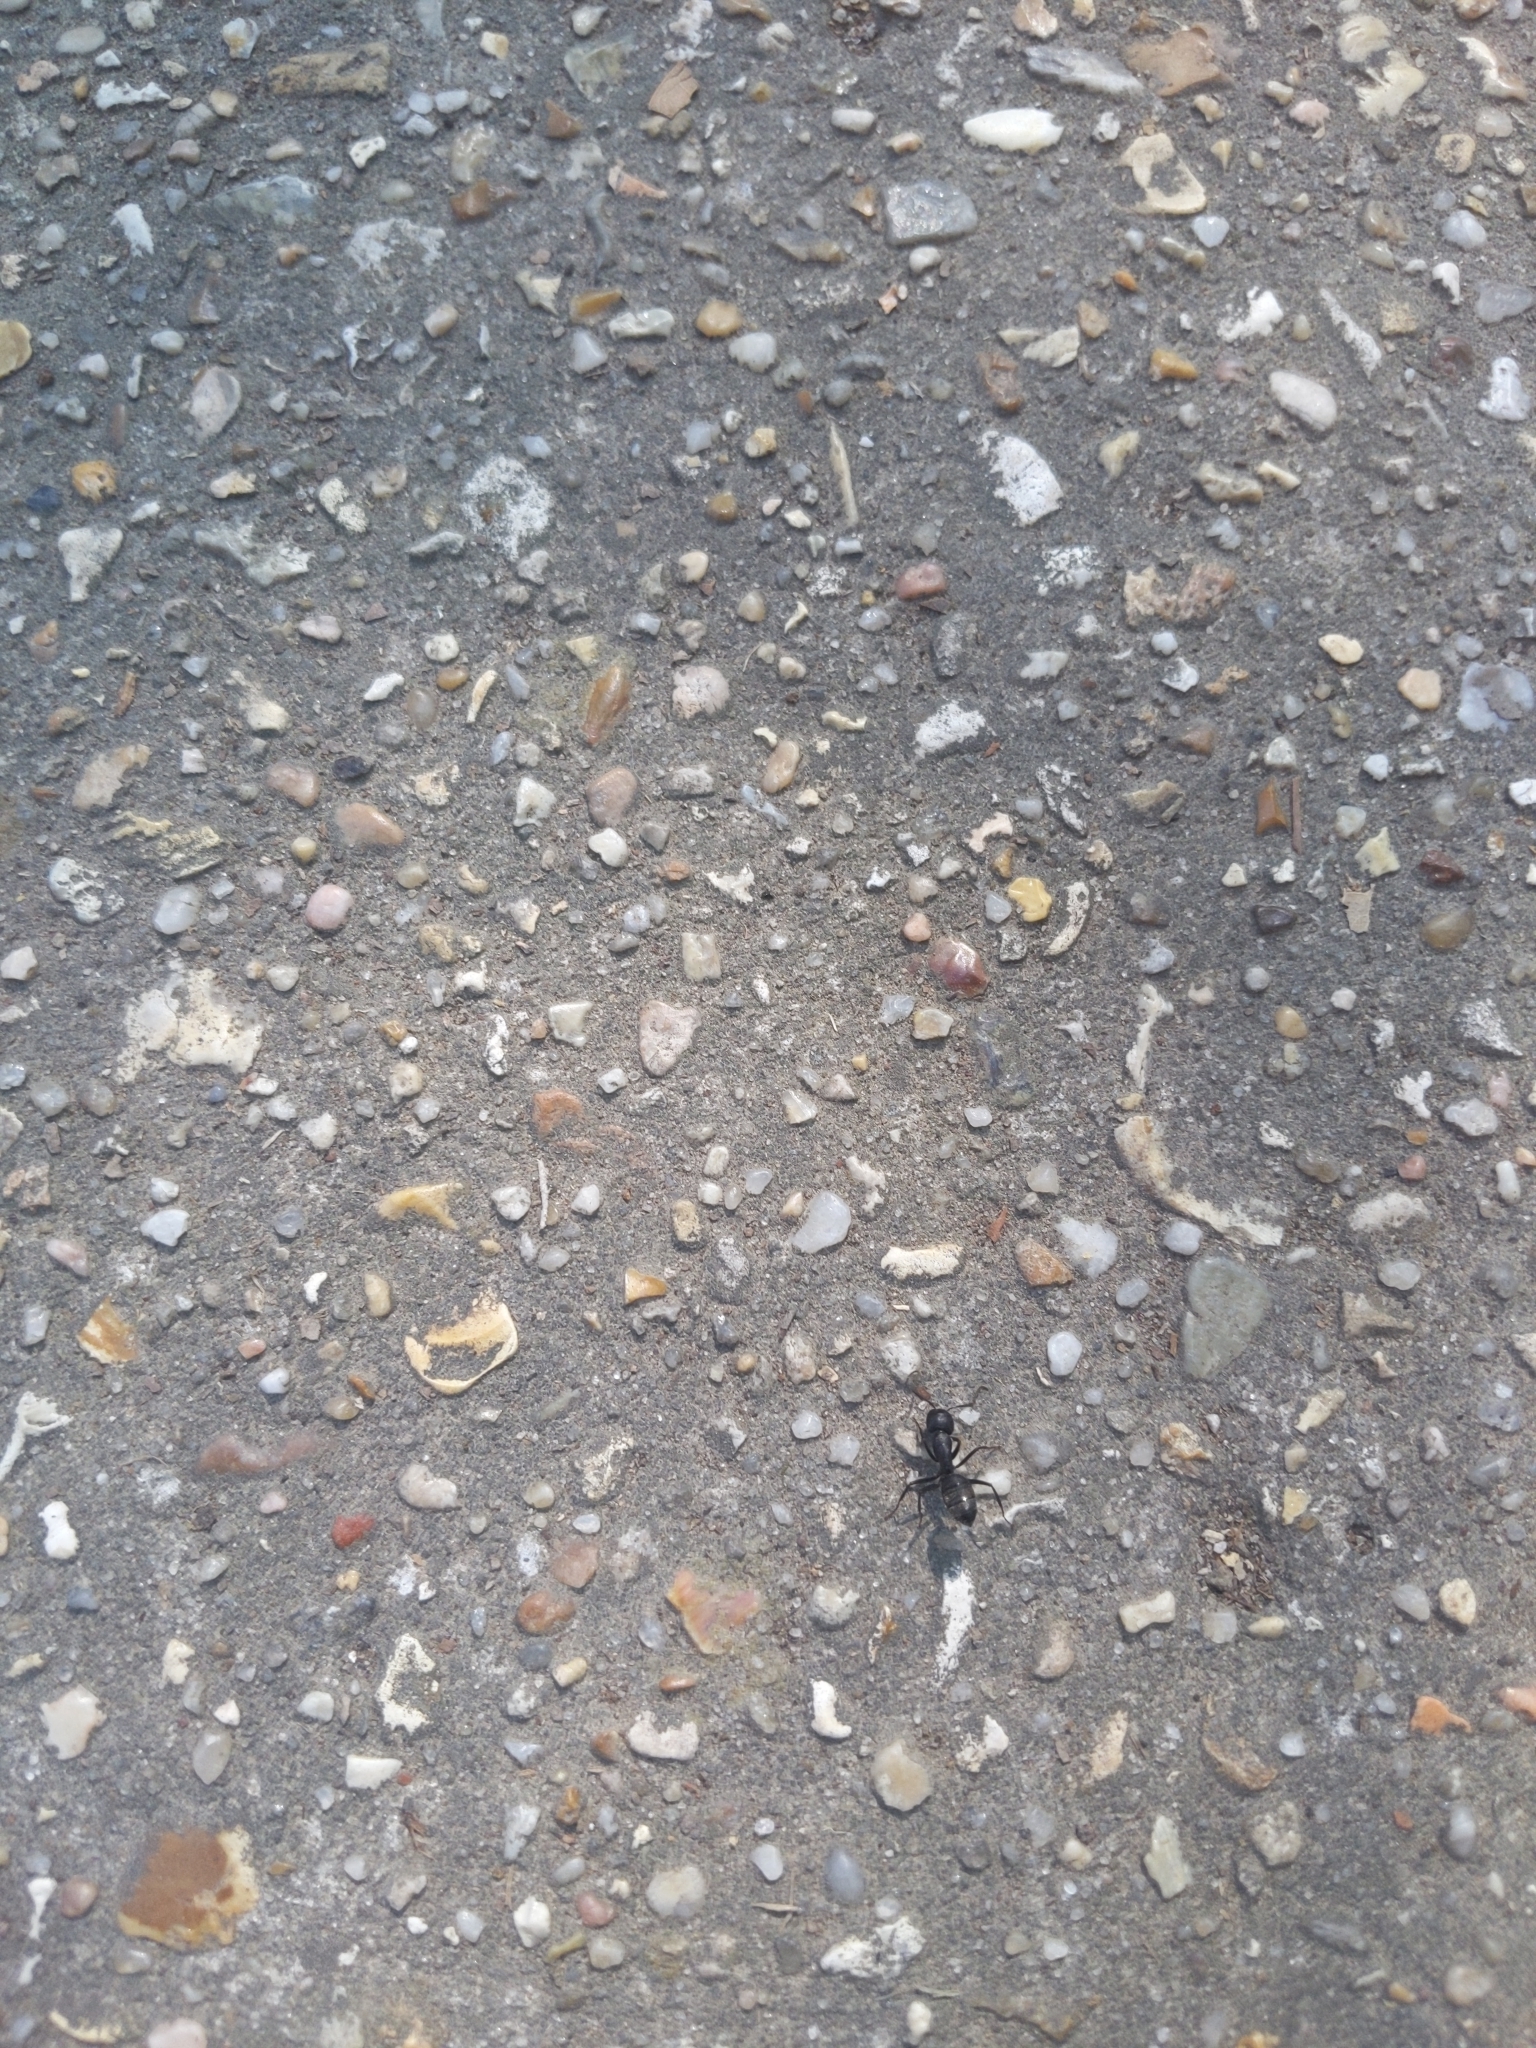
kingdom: Animalia
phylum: Arthropoda
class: Insecta
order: Hymenoptera
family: Formicidae
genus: Camponotus
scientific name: Camponotus pennsylvanicus
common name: Black carpenter ant
